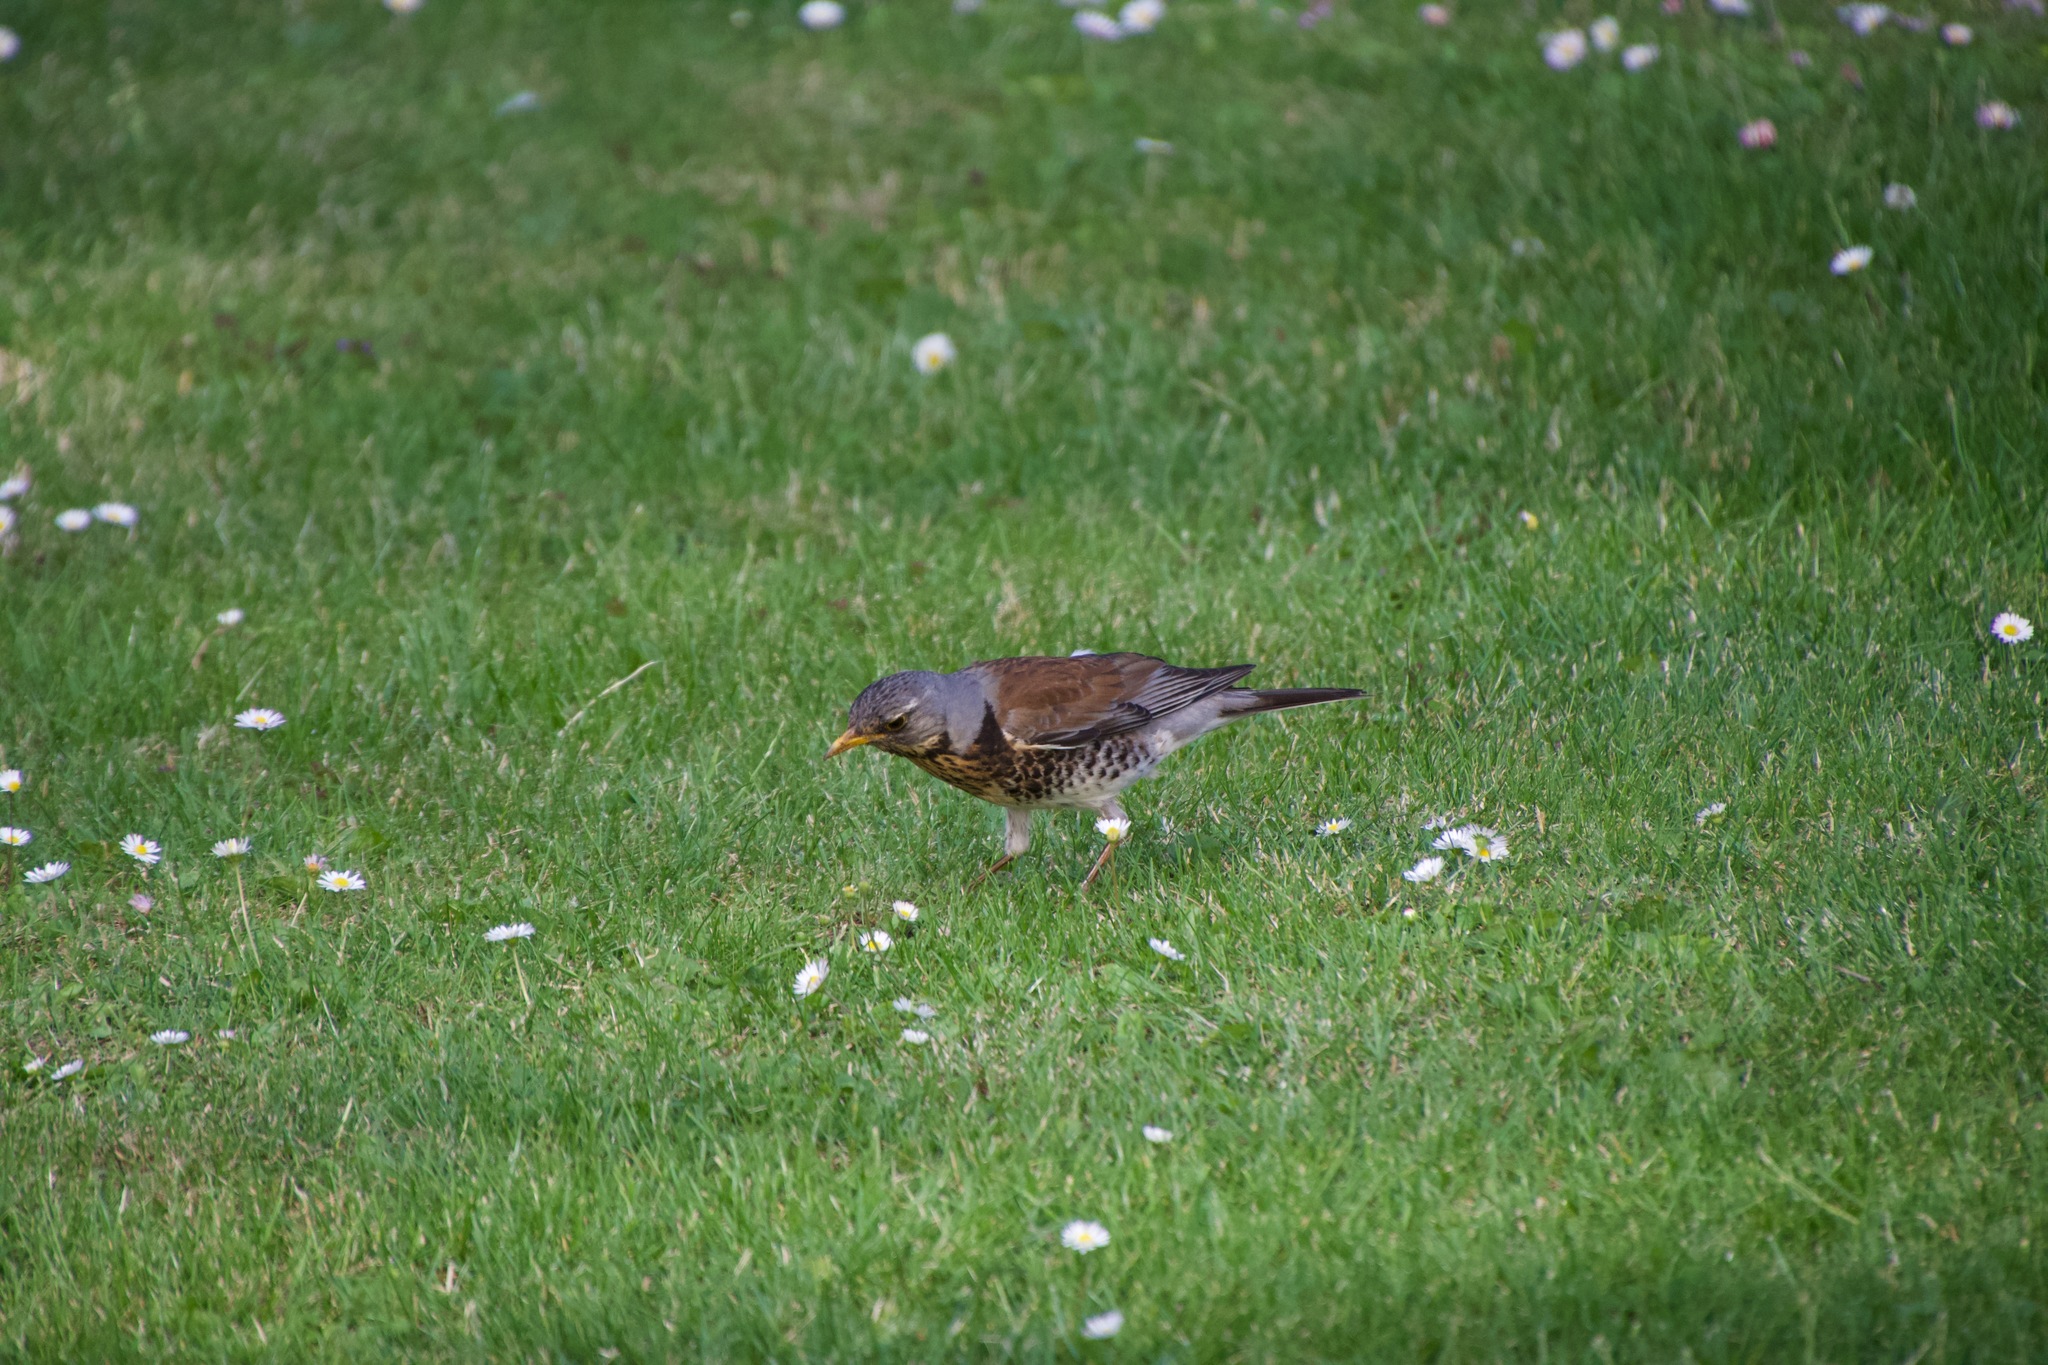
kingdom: Animalia
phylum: Chordata
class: Aves
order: Passeriformes
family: Turdidae
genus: Turdus
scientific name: Turdus pilaris
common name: Fieldfare
